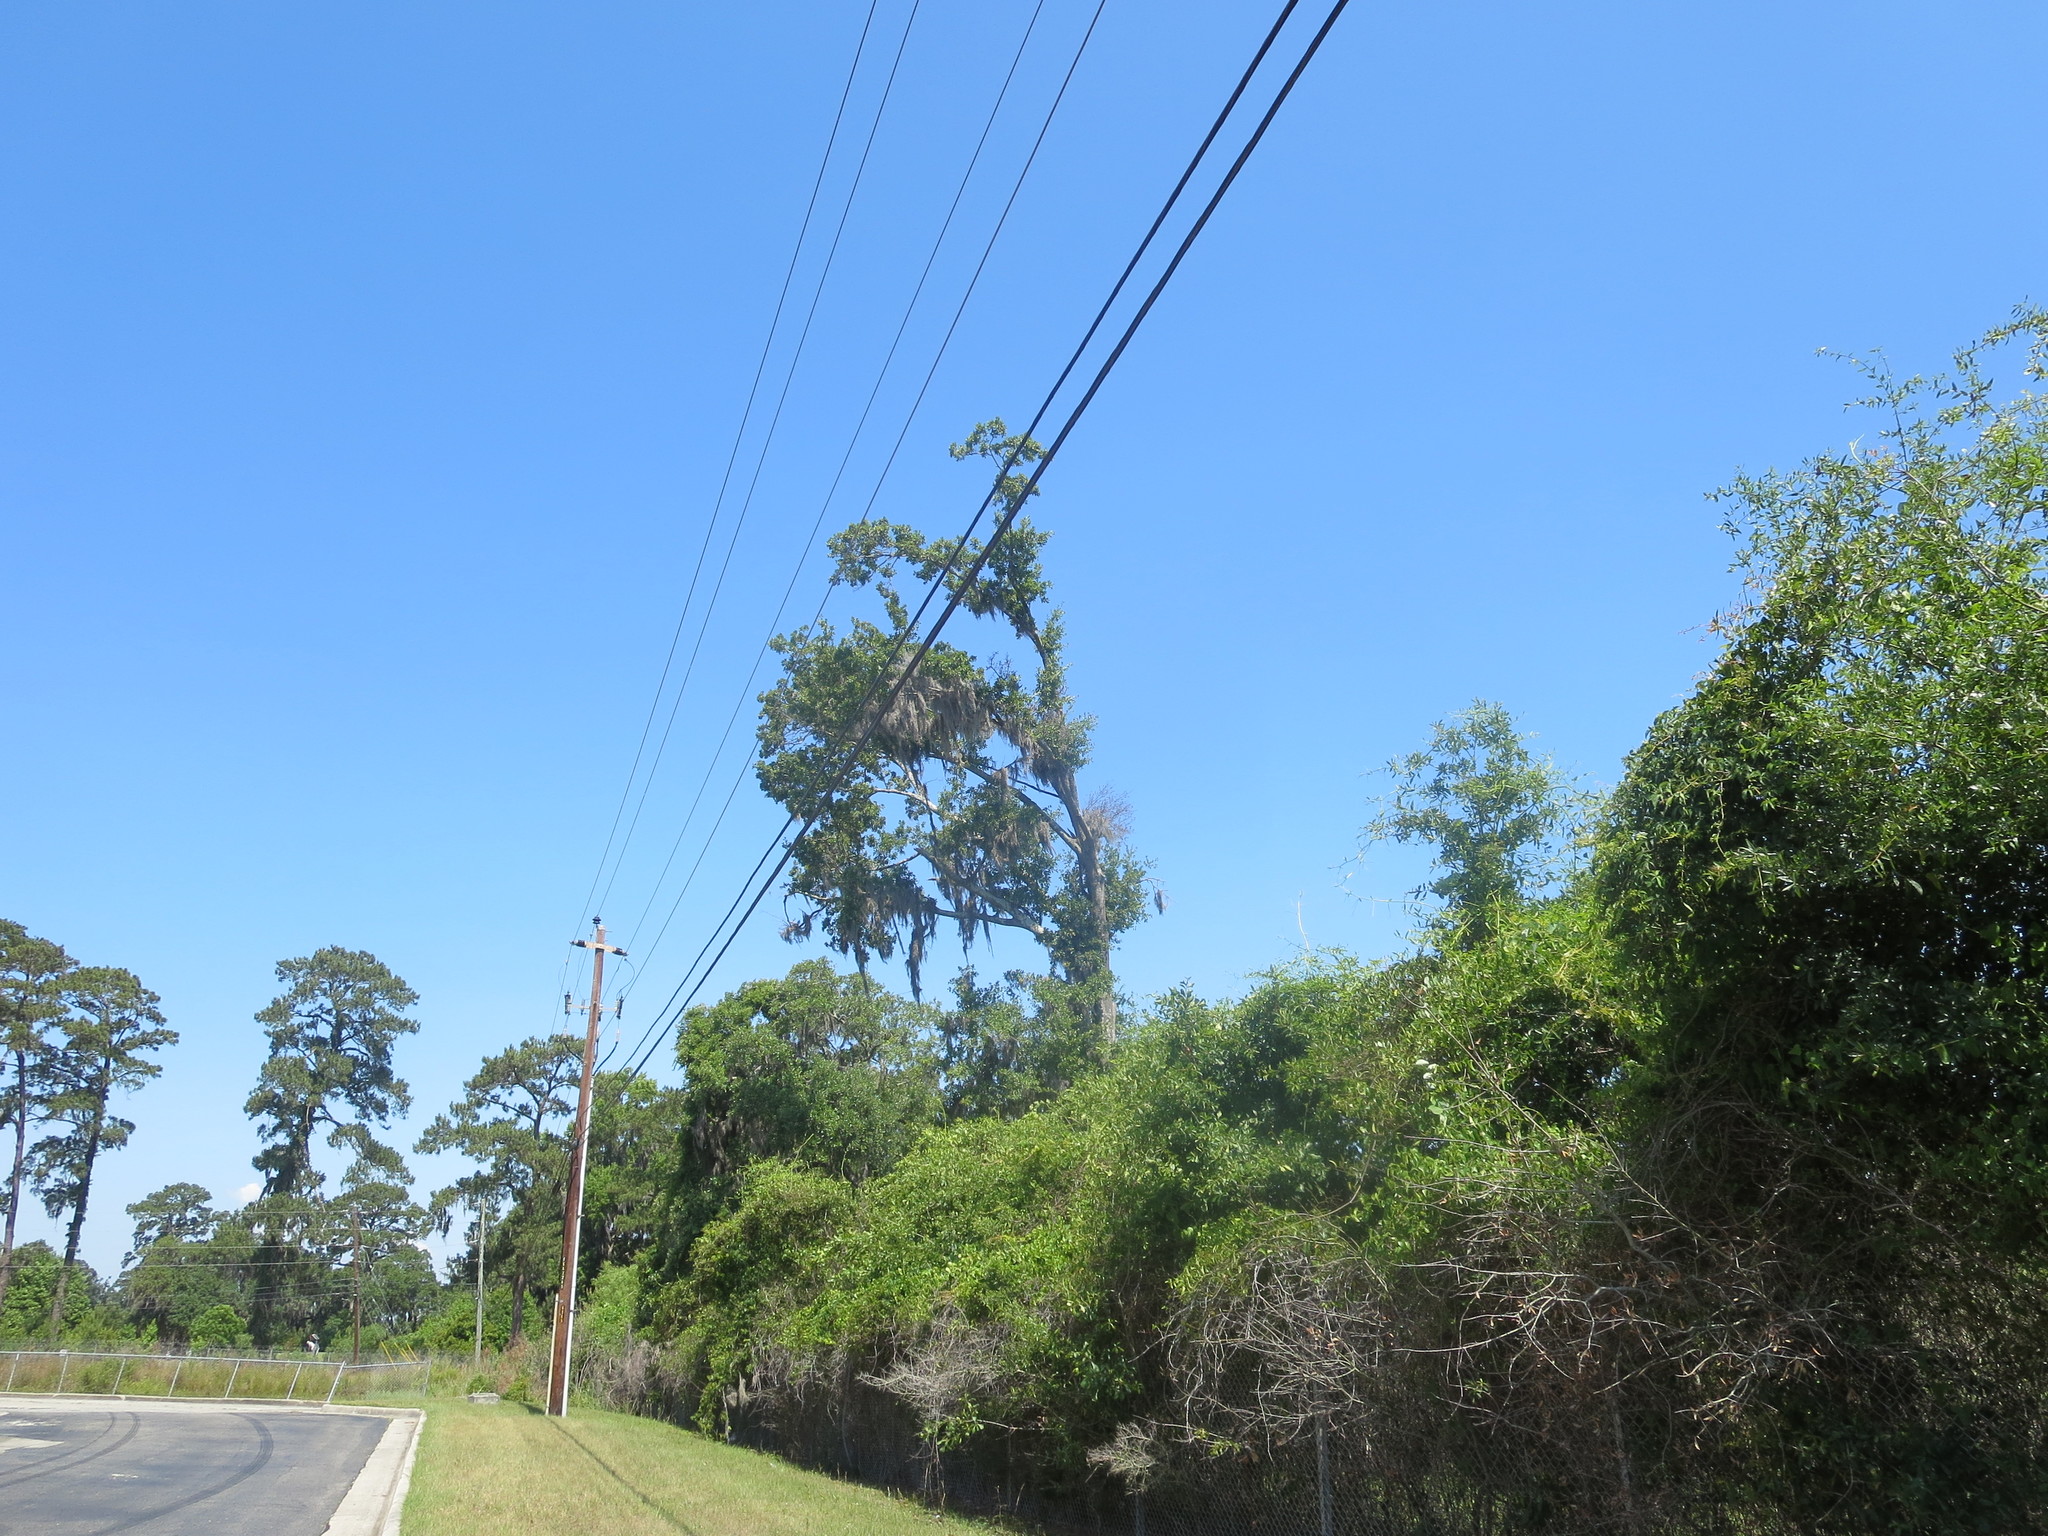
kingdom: Plantae
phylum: Tracheophyta
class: Liliopsida
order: Poales
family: Bromeliaceae
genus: Tillandsia
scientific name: Tillandsia usneoides
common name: Spanish moss
